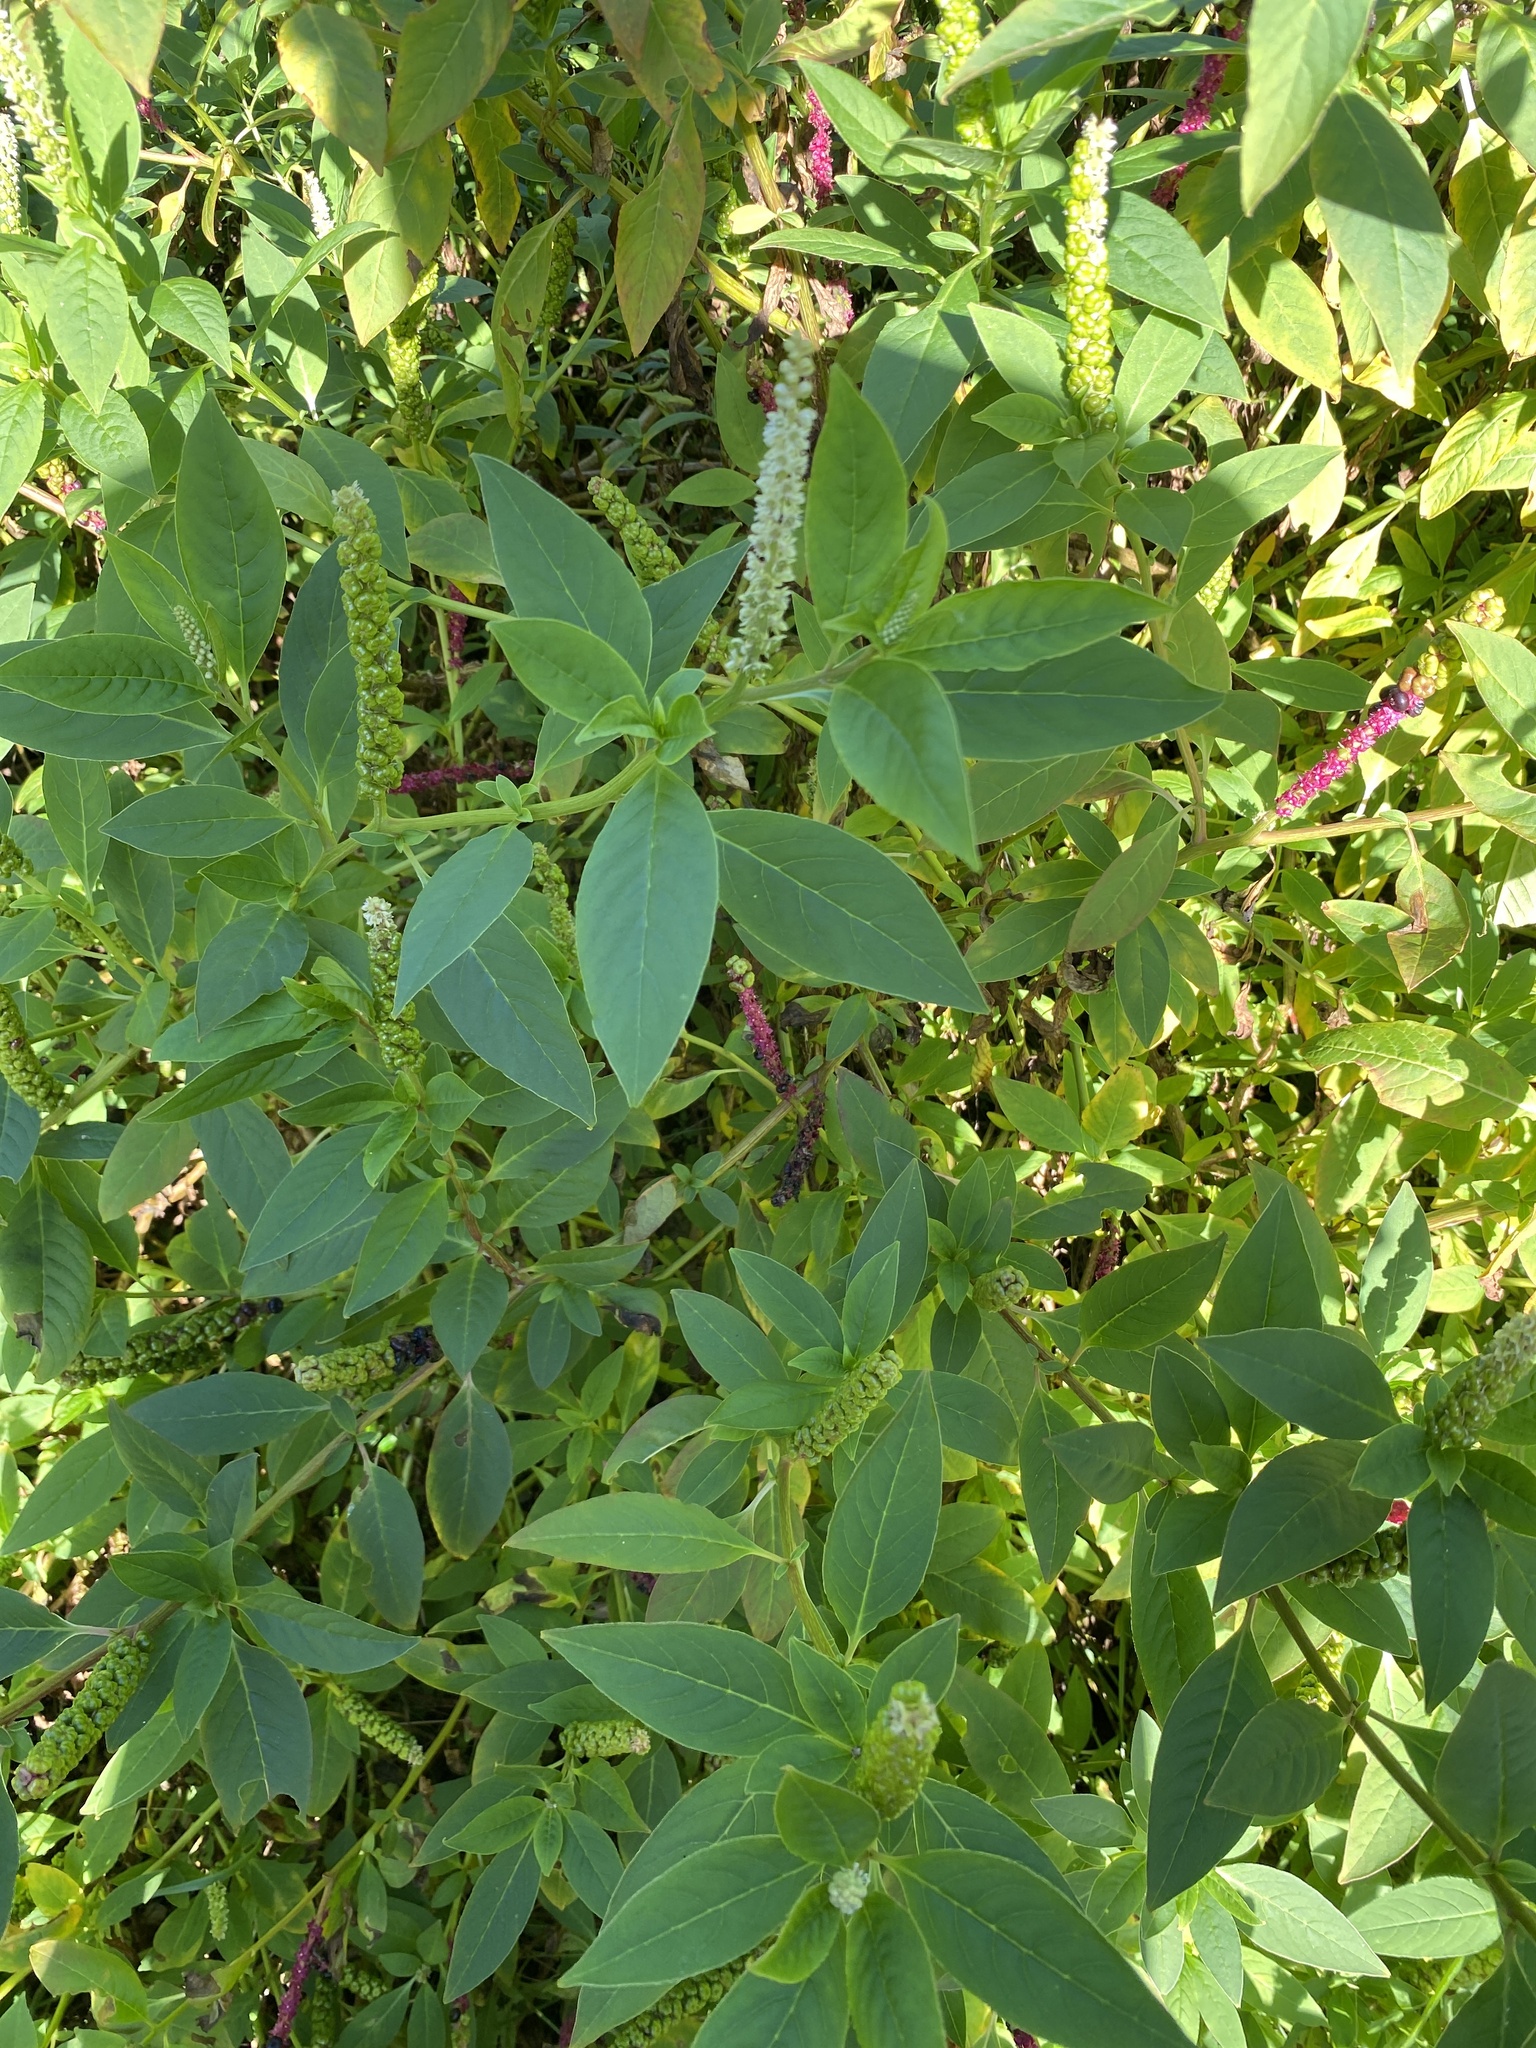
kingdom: Plantae
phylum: Tracheophyta
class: Magnoliopsida
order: Caryophyllales
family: Phytolaccaceae
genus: Phytolacca
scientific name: Phytolacca icosandra
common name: Button pokeweed
